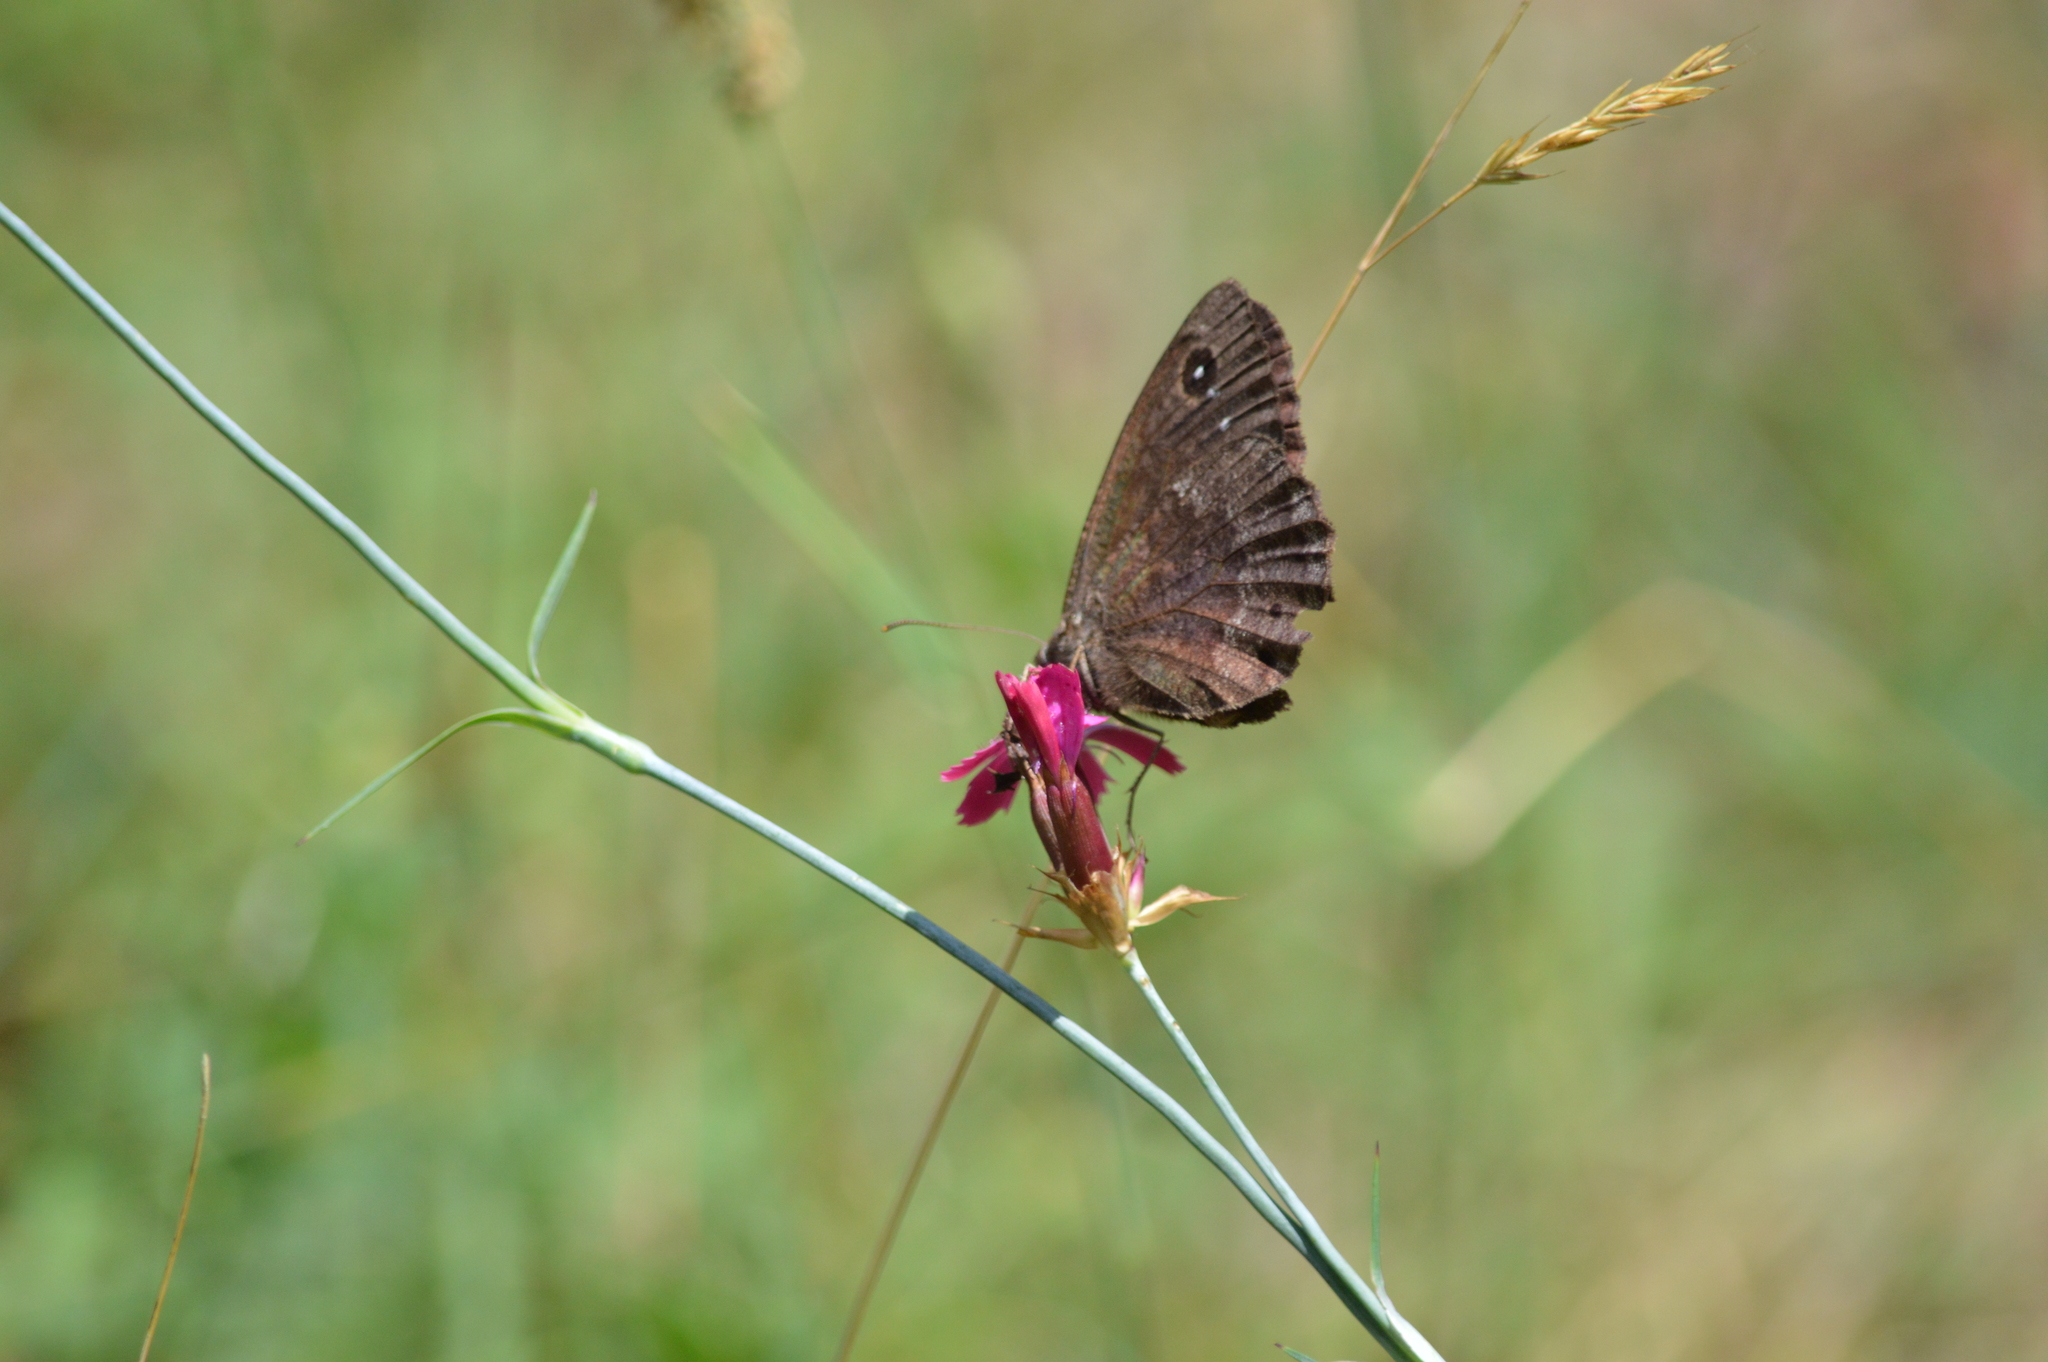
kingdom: Animalia
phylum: Arthropoda
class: Insecta
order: Lepidoptera
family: Nymphalidae
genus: Satyrus
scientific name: Satyrus ferula
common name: Great sooty satyr
